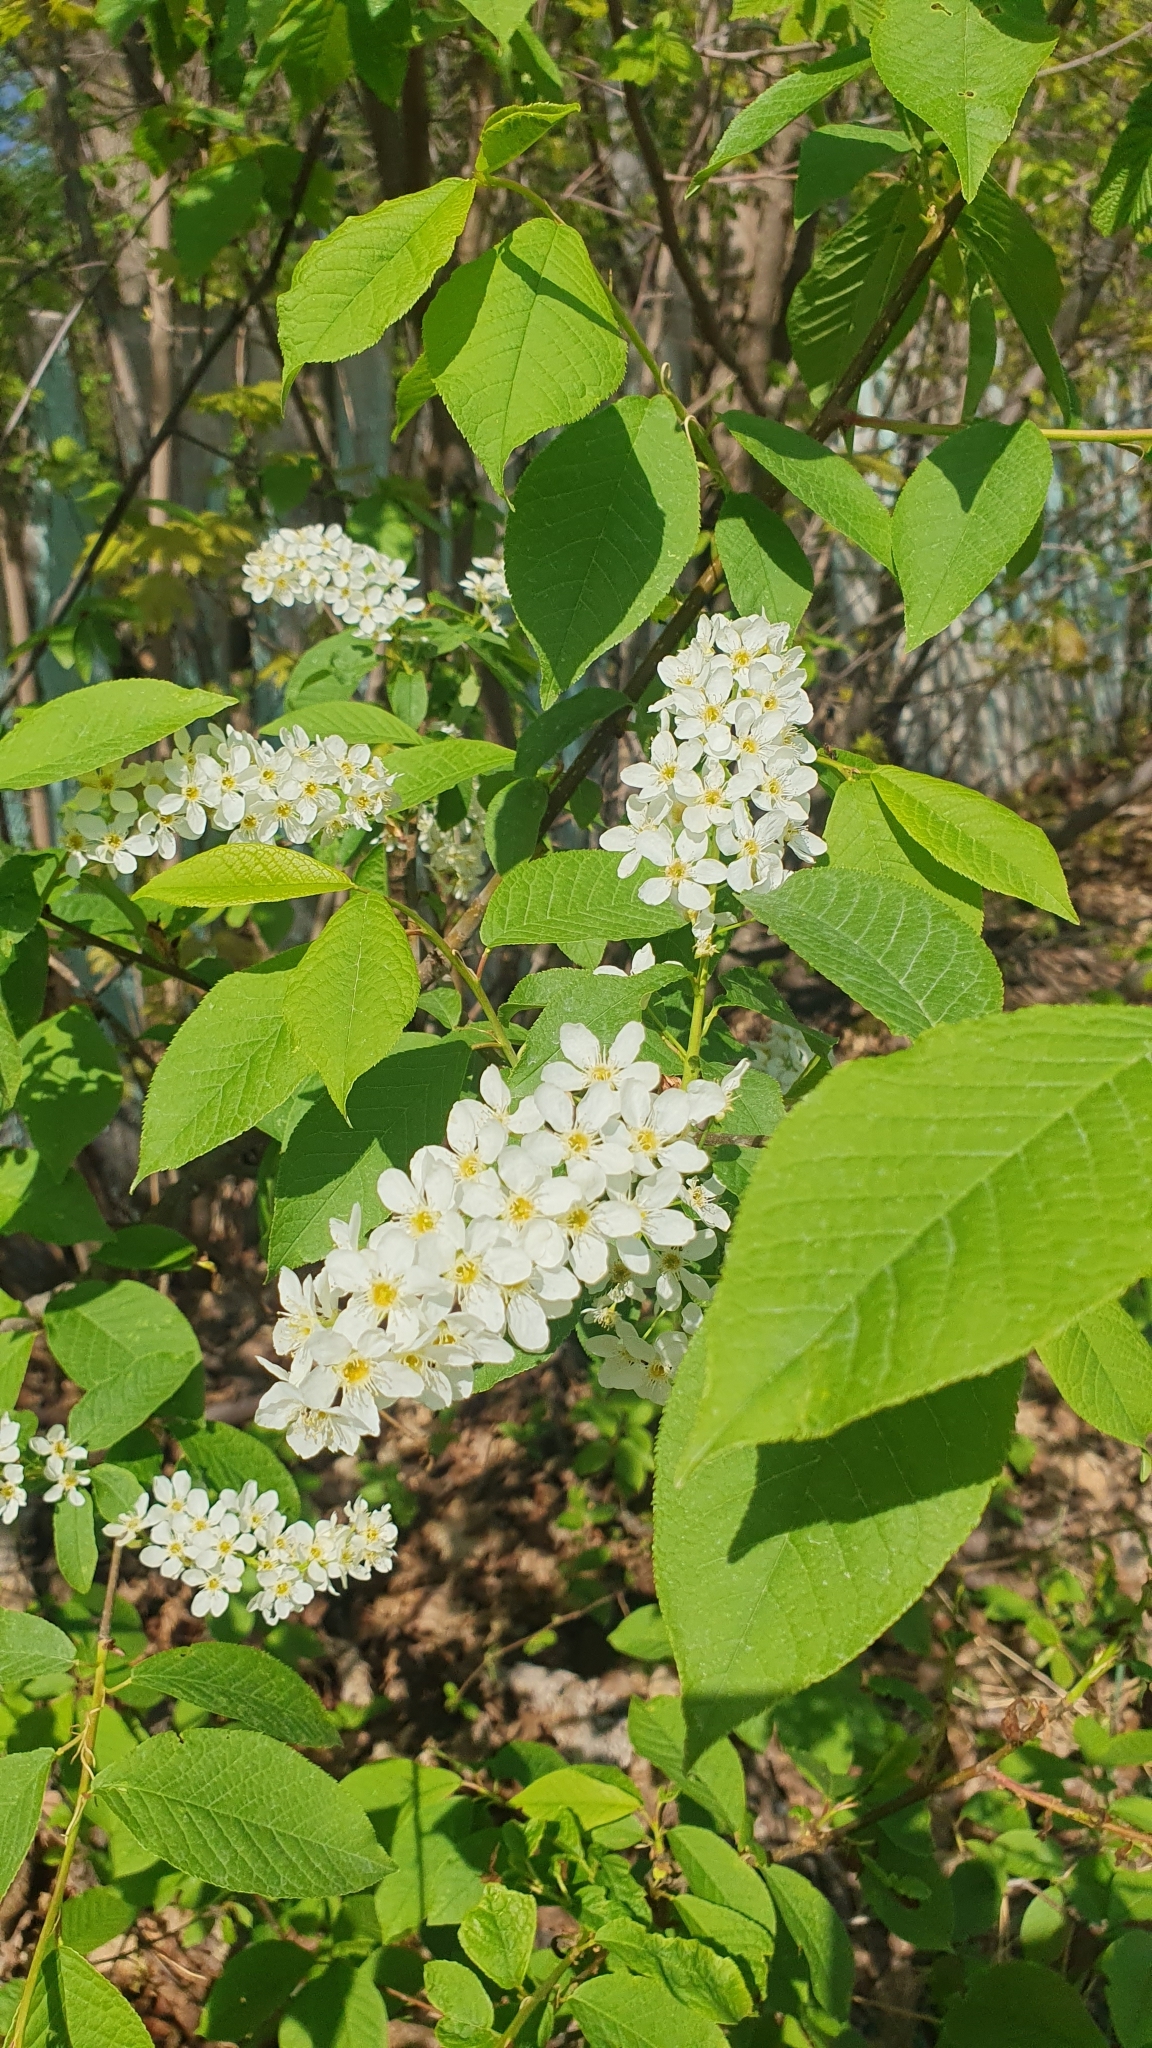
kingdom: Plantae
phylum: Tracheophyta
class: Magnoliopsida
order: Rosales
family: Rosaceae
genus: Prunus
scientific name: Prunus padus
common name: Bird cherry
